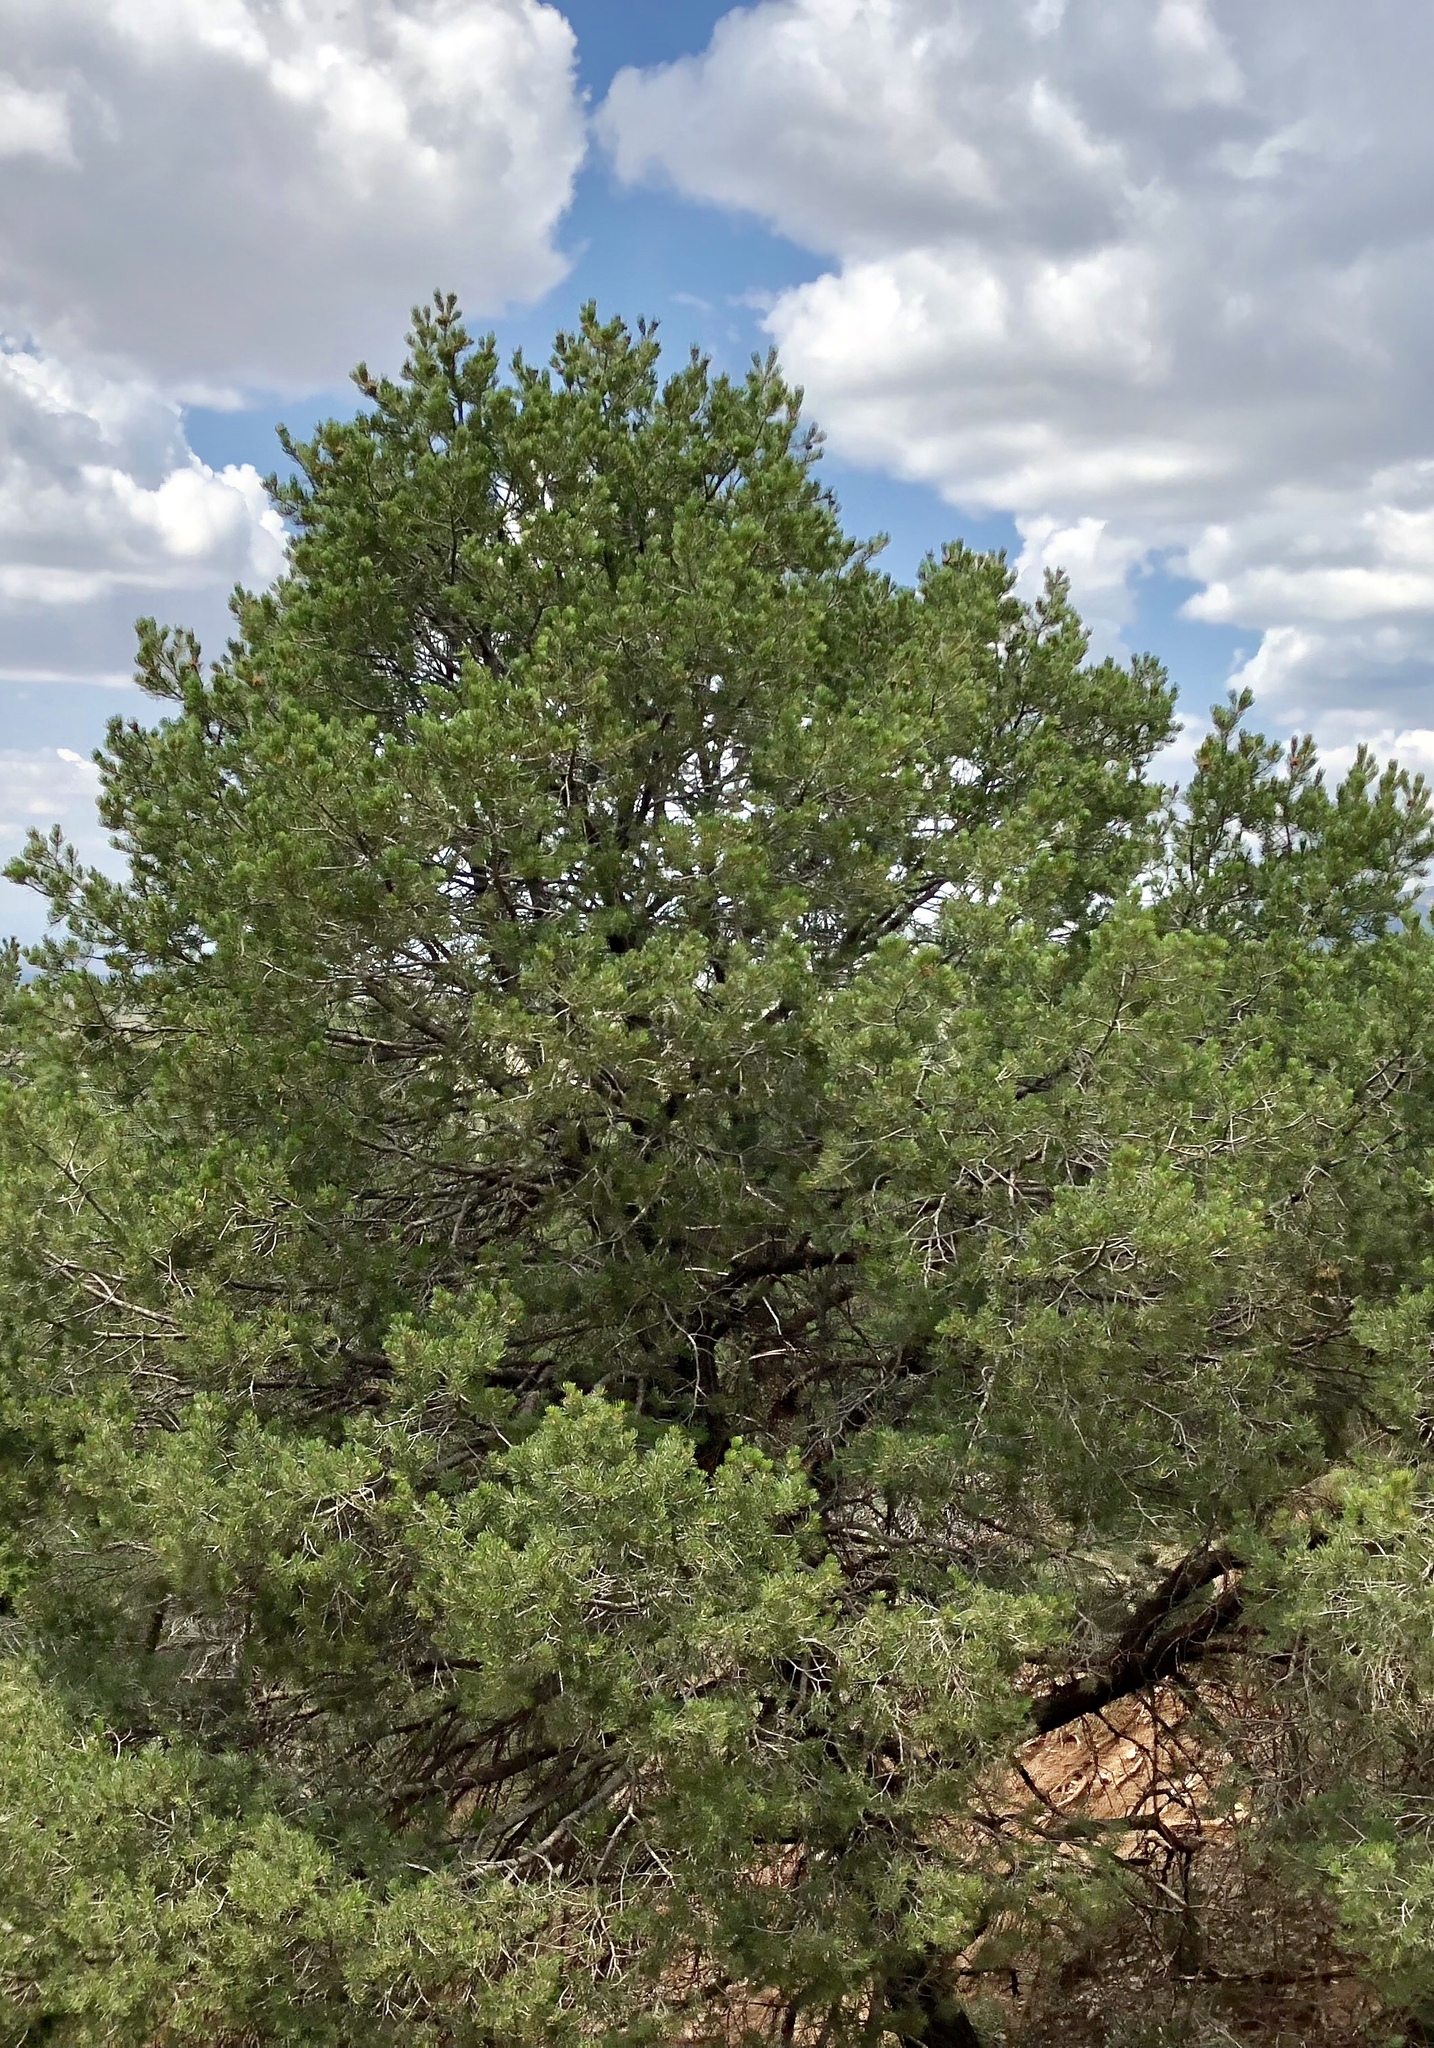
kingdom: Plantae
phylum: Tracheophyta
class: Pinopsida
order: Pinales
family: Pinaceae
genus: Pinus
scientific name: Pinus edulis
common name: Colorado pinyon
